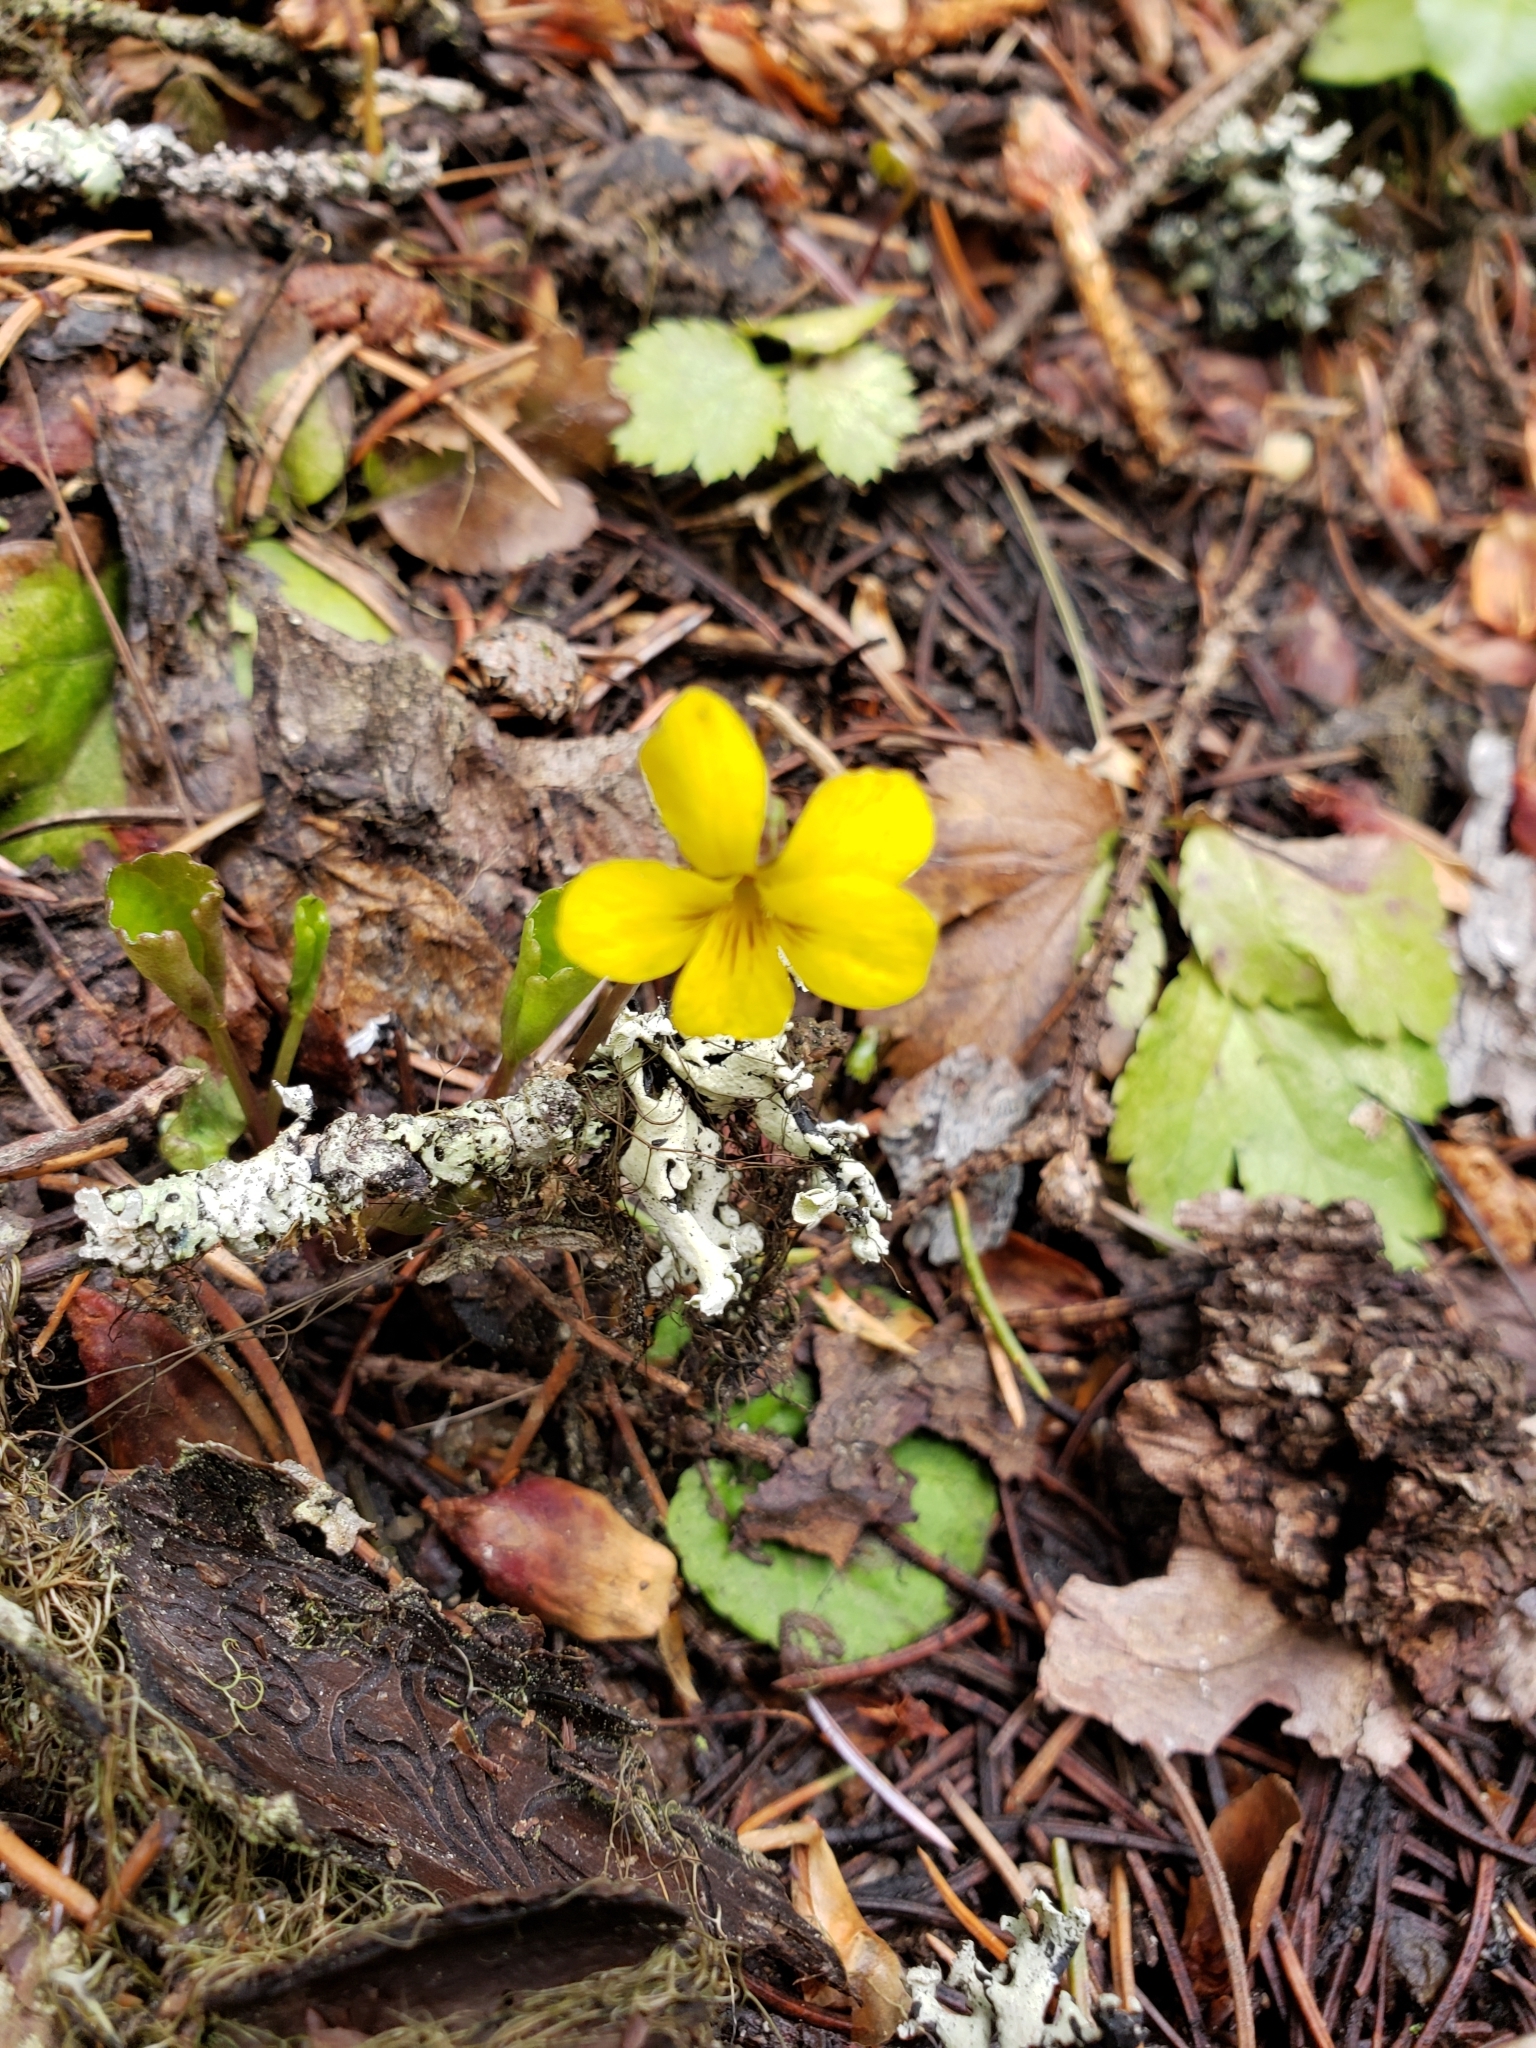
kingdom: Plantae
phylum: Tracheophyta
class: Magnoliopsida
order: Malpighiales
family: Violaceae
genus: Viola
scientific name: Viola orbiculata
